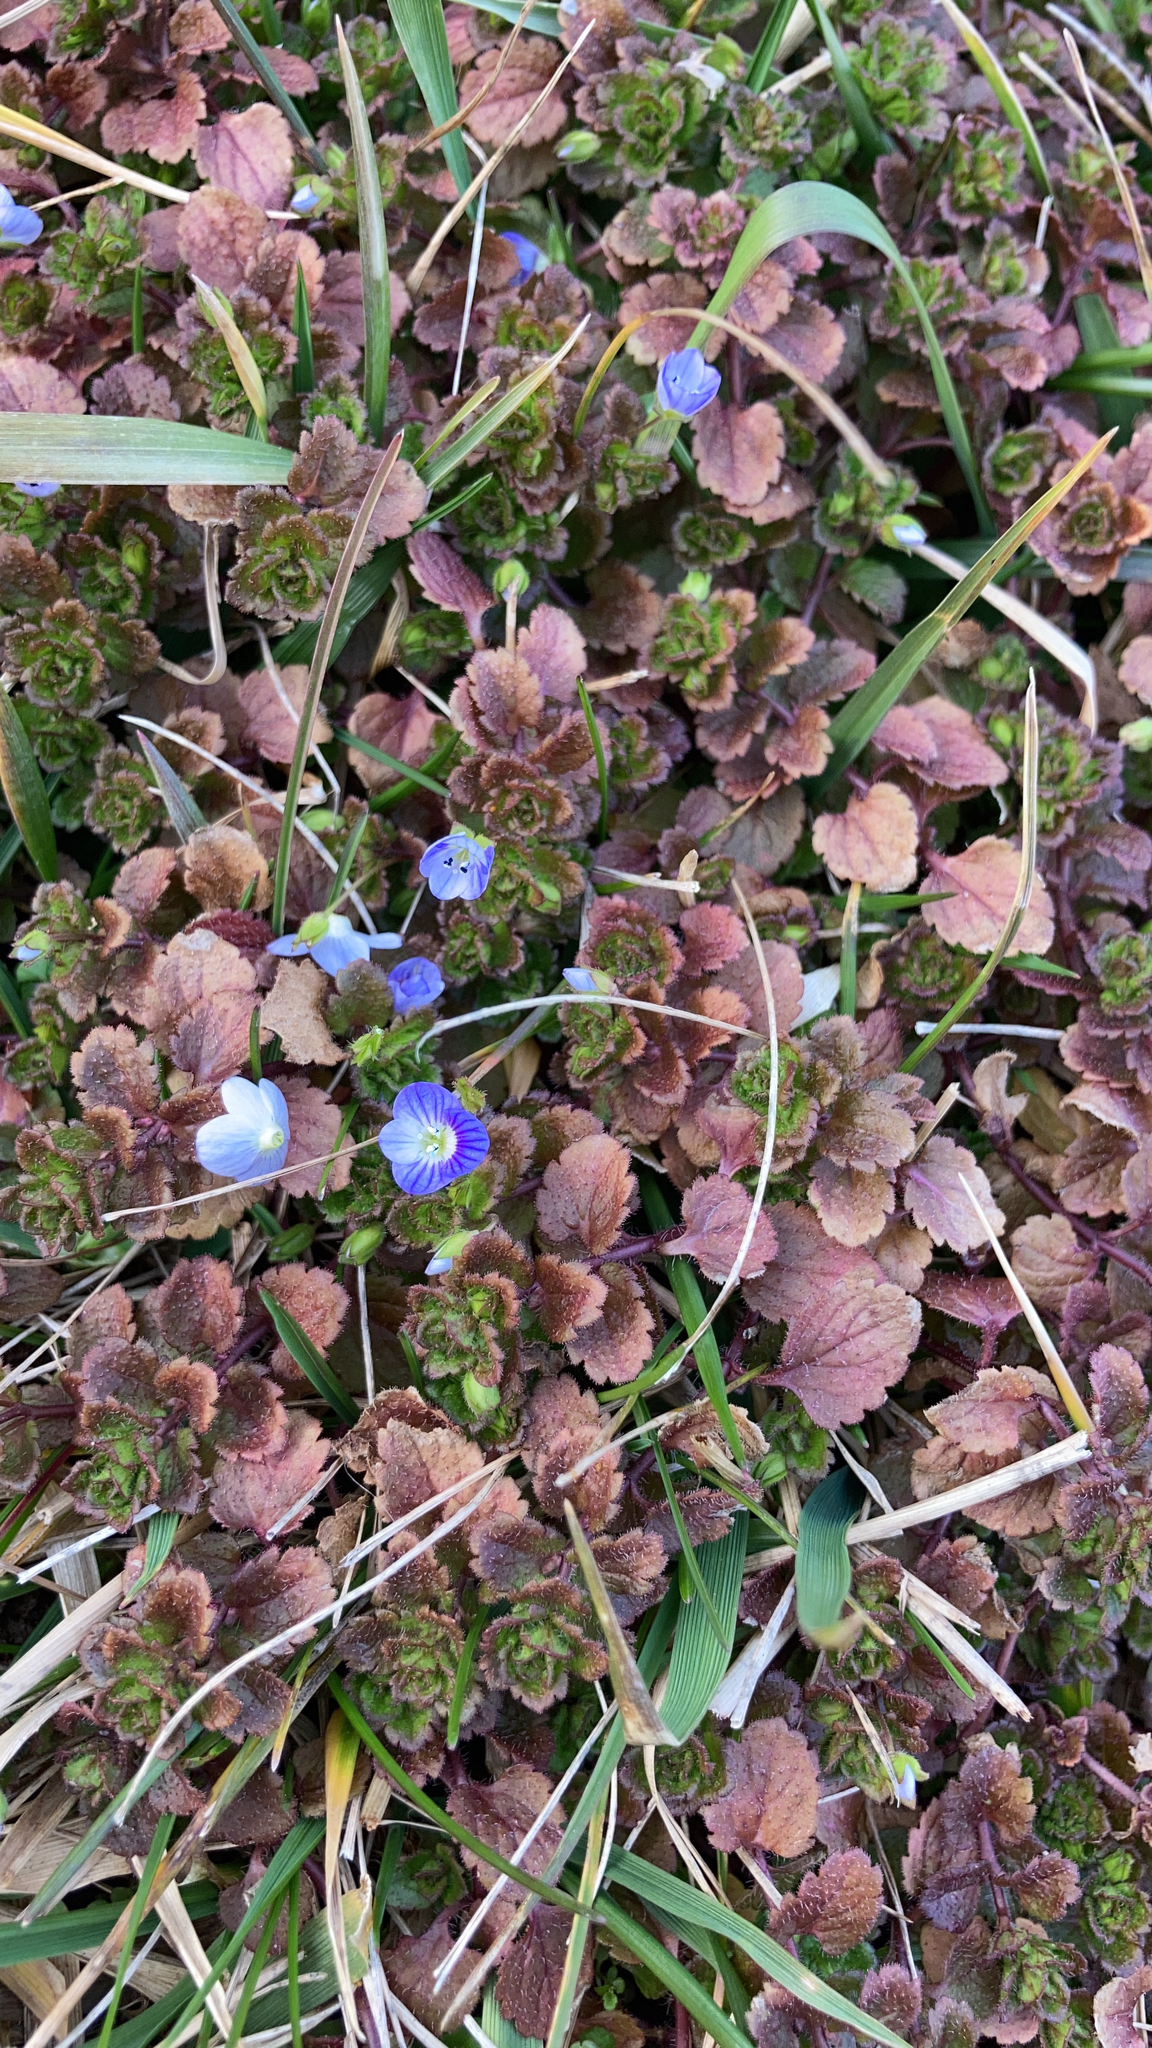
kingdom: Plantae
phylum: Tracheophyta
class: Magnoliopsida
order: Lamiales
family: Plantaginaceae
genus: Veronica
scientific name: Veronica persica
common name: Common field-speedwell
